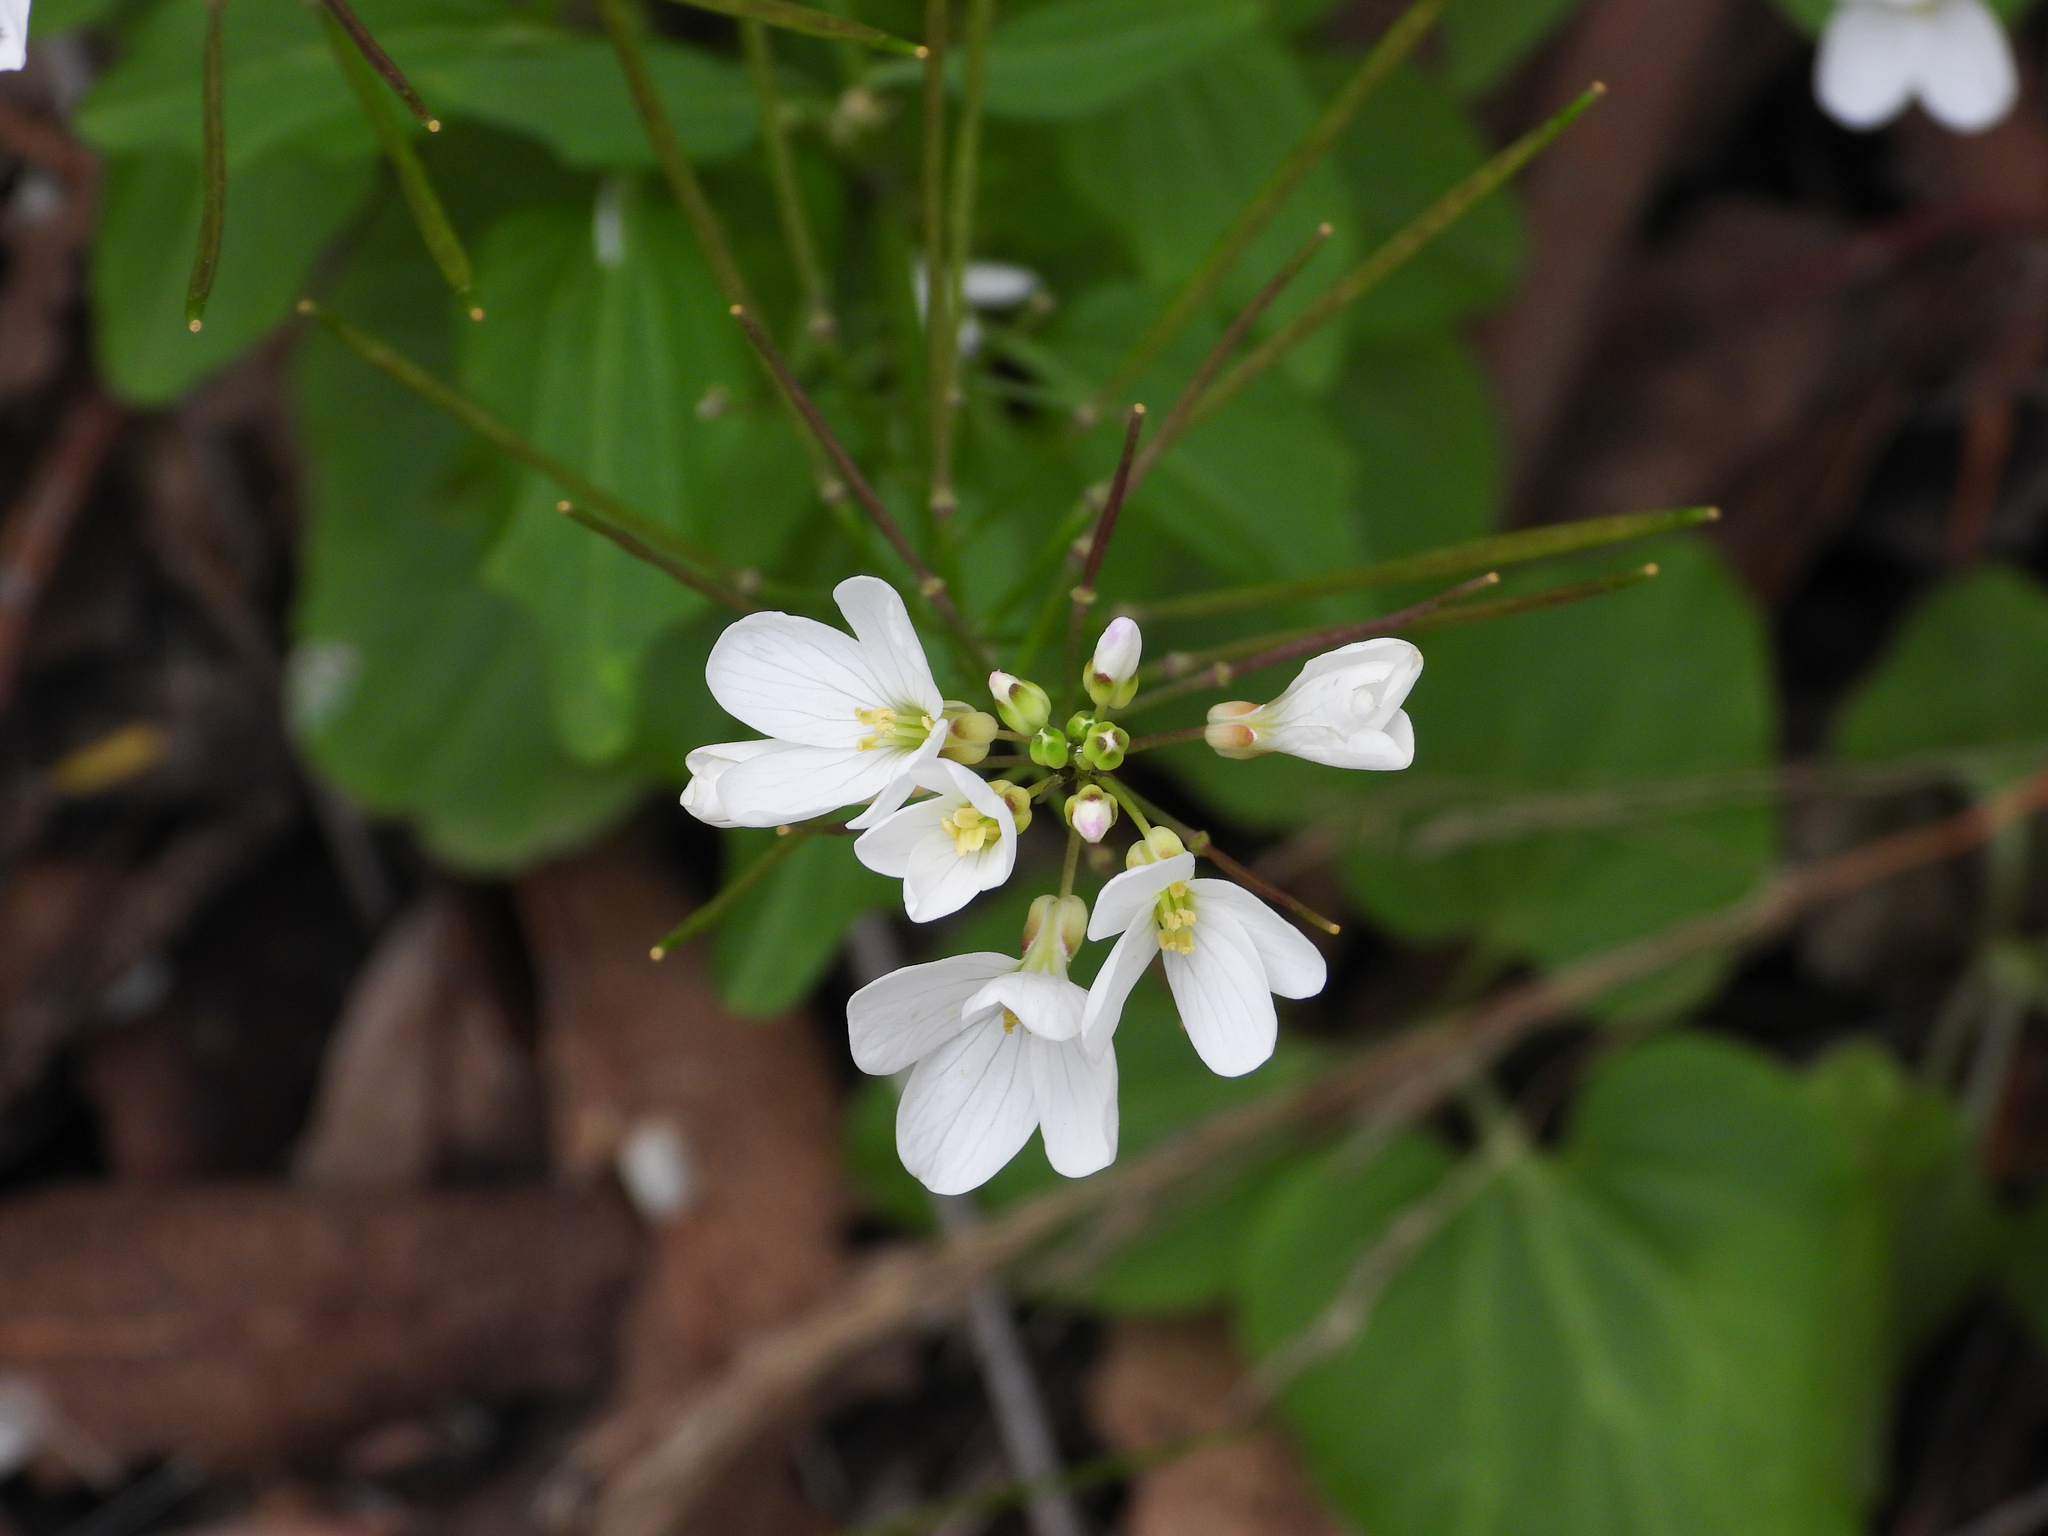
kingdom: Plantae
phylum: Tracheophyta
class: Magnoliopsida
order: Brassicales
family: Brassicaceae
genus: Cardamine
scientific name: Cardamine californica
